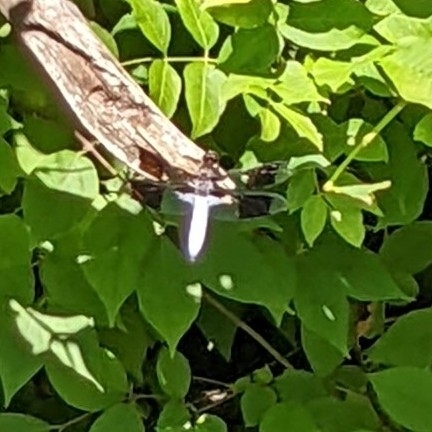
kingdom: Animalia
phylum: Arthropoda
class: Insecta
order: Odonata
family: Libellulidae
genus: Plathemis
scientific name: Plathemis lydia
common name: Common whitetail
